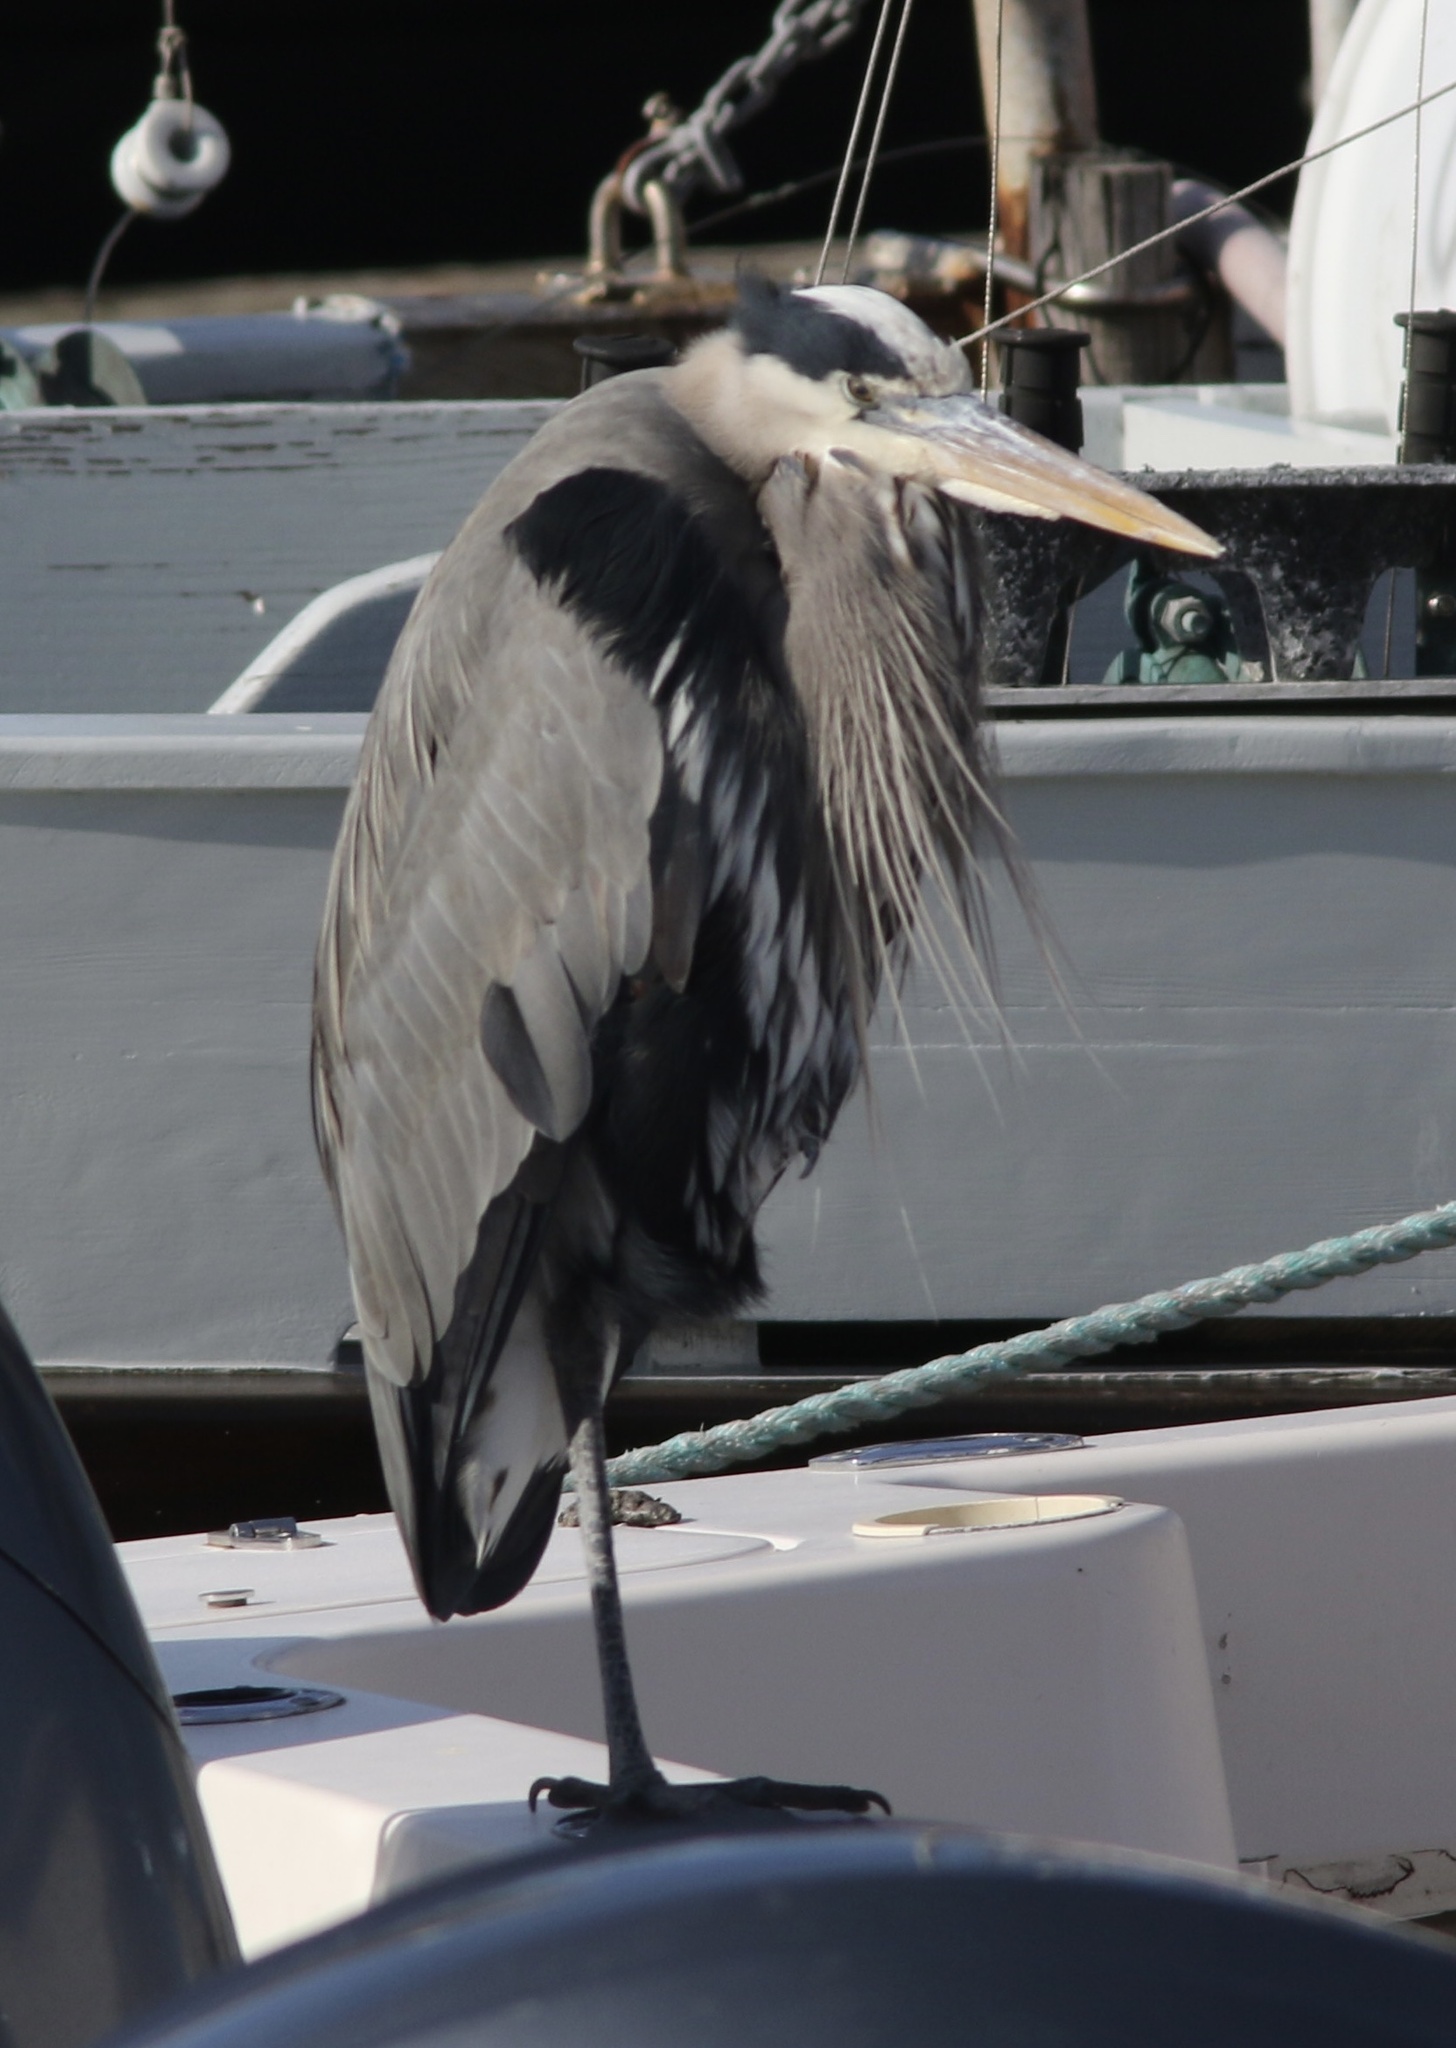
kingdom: Animalia
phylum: Chordata
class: Aves
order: Pelecaniformes
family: Ardeidae
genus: Ardea
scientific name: Ardea herodias
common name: Great blue heron
